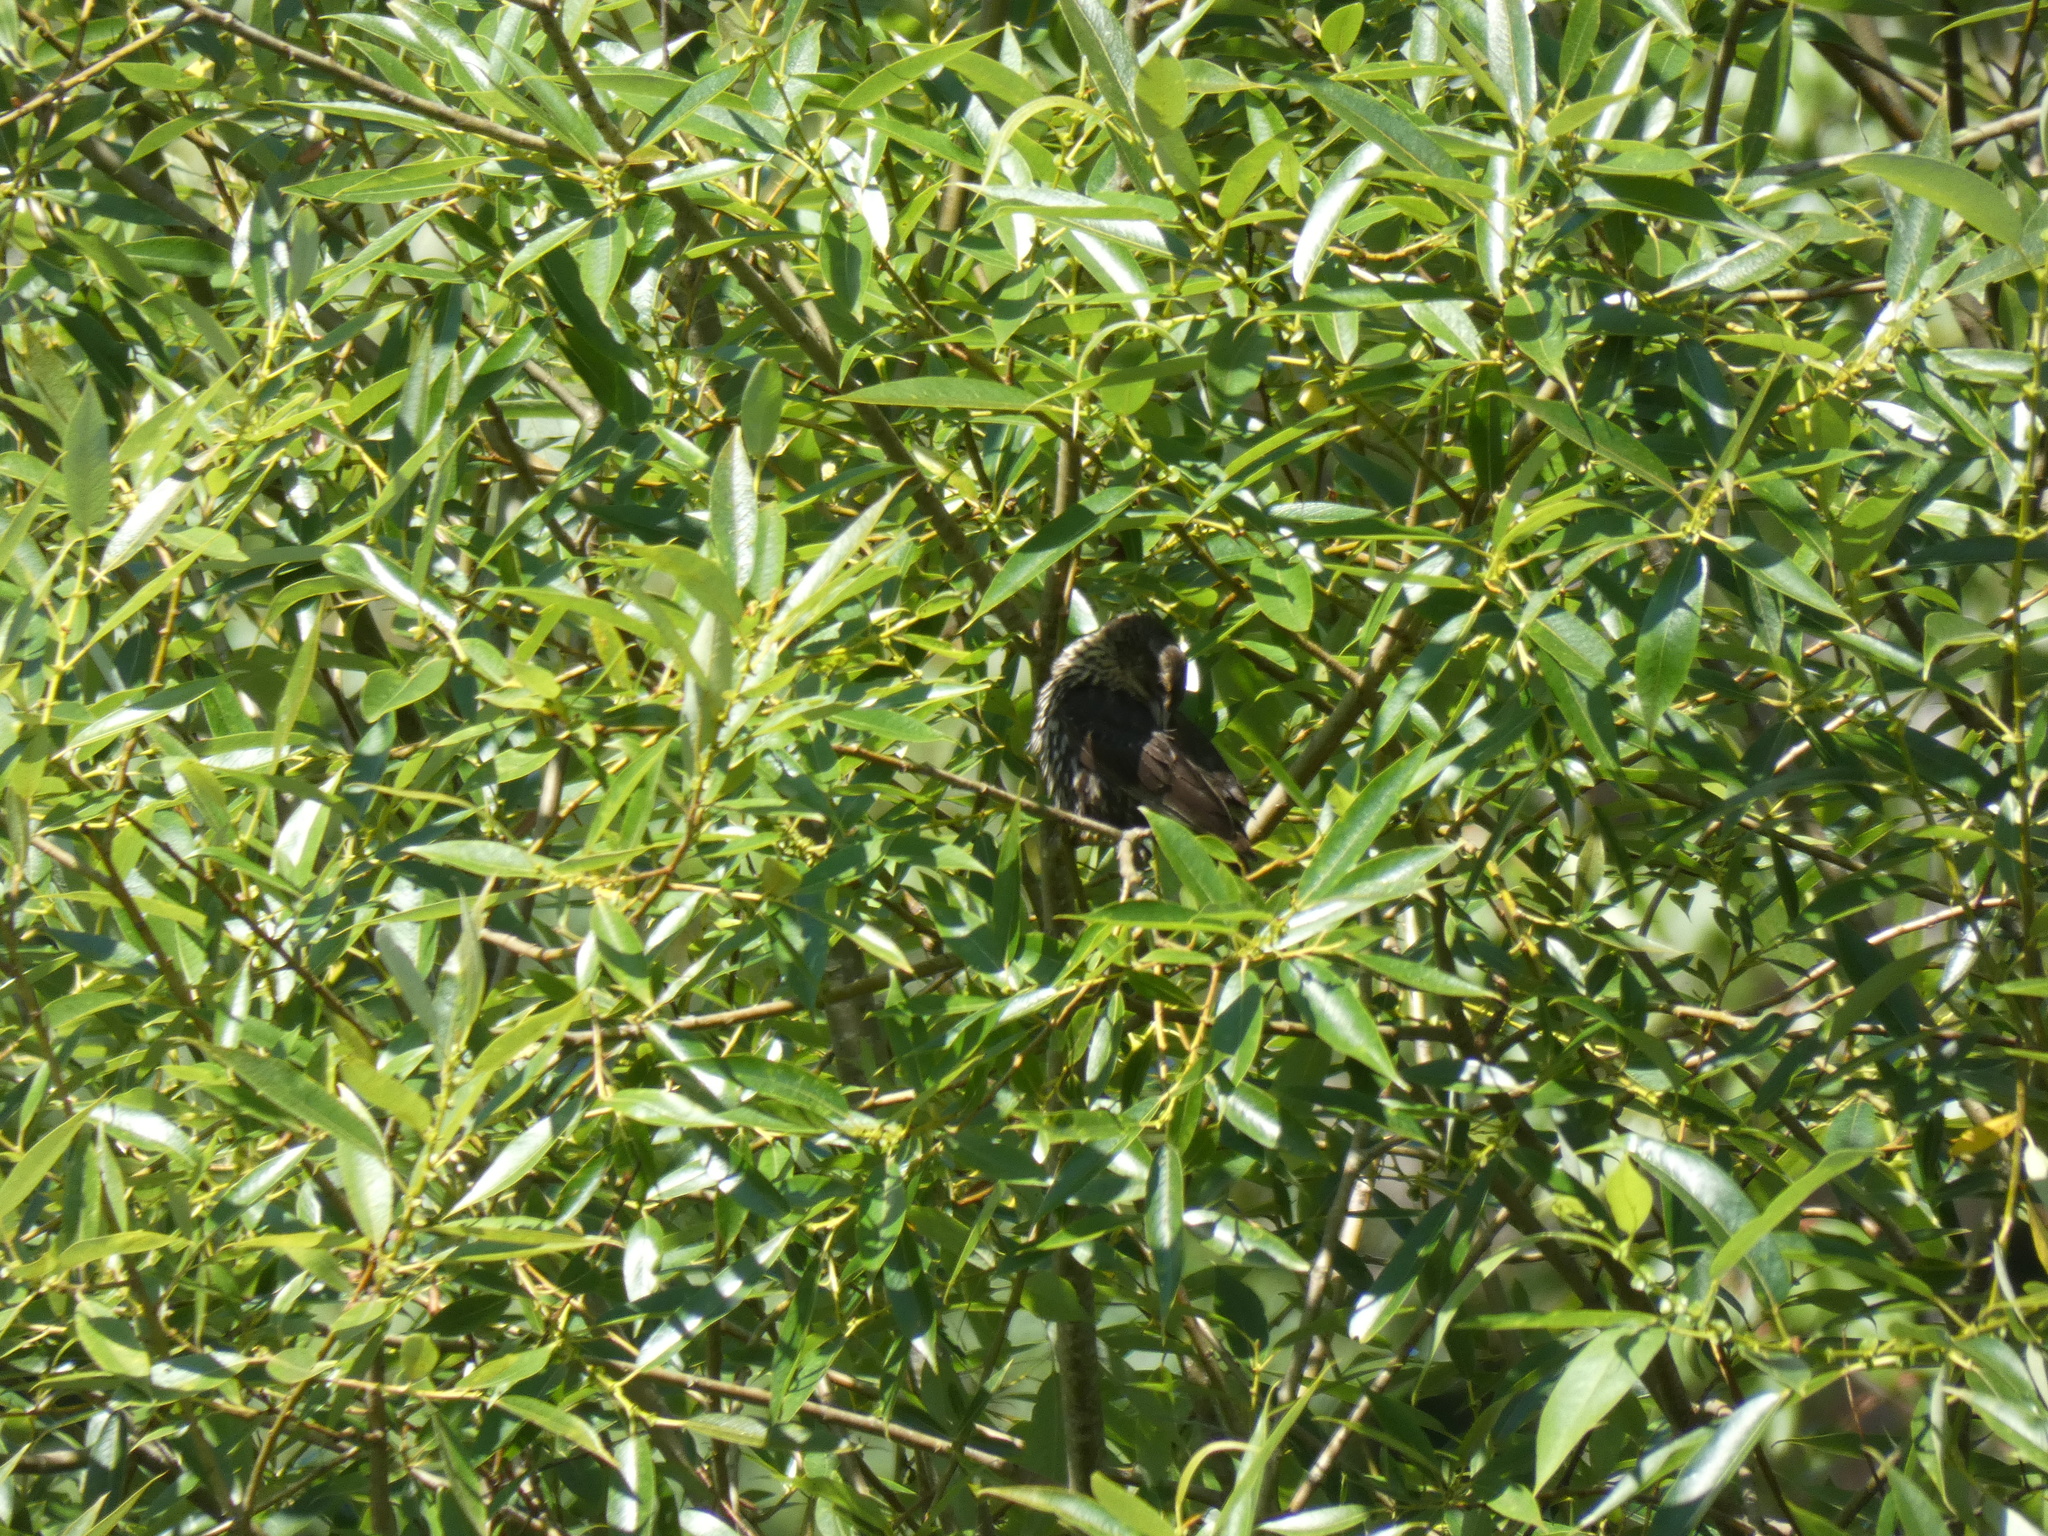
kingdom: Animalia
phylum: Chordata
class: Aves
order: Passeriformes
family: Icteridae
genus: Agelaius
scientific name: Agelaius phoeniceus
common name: Red-winged blackbird
